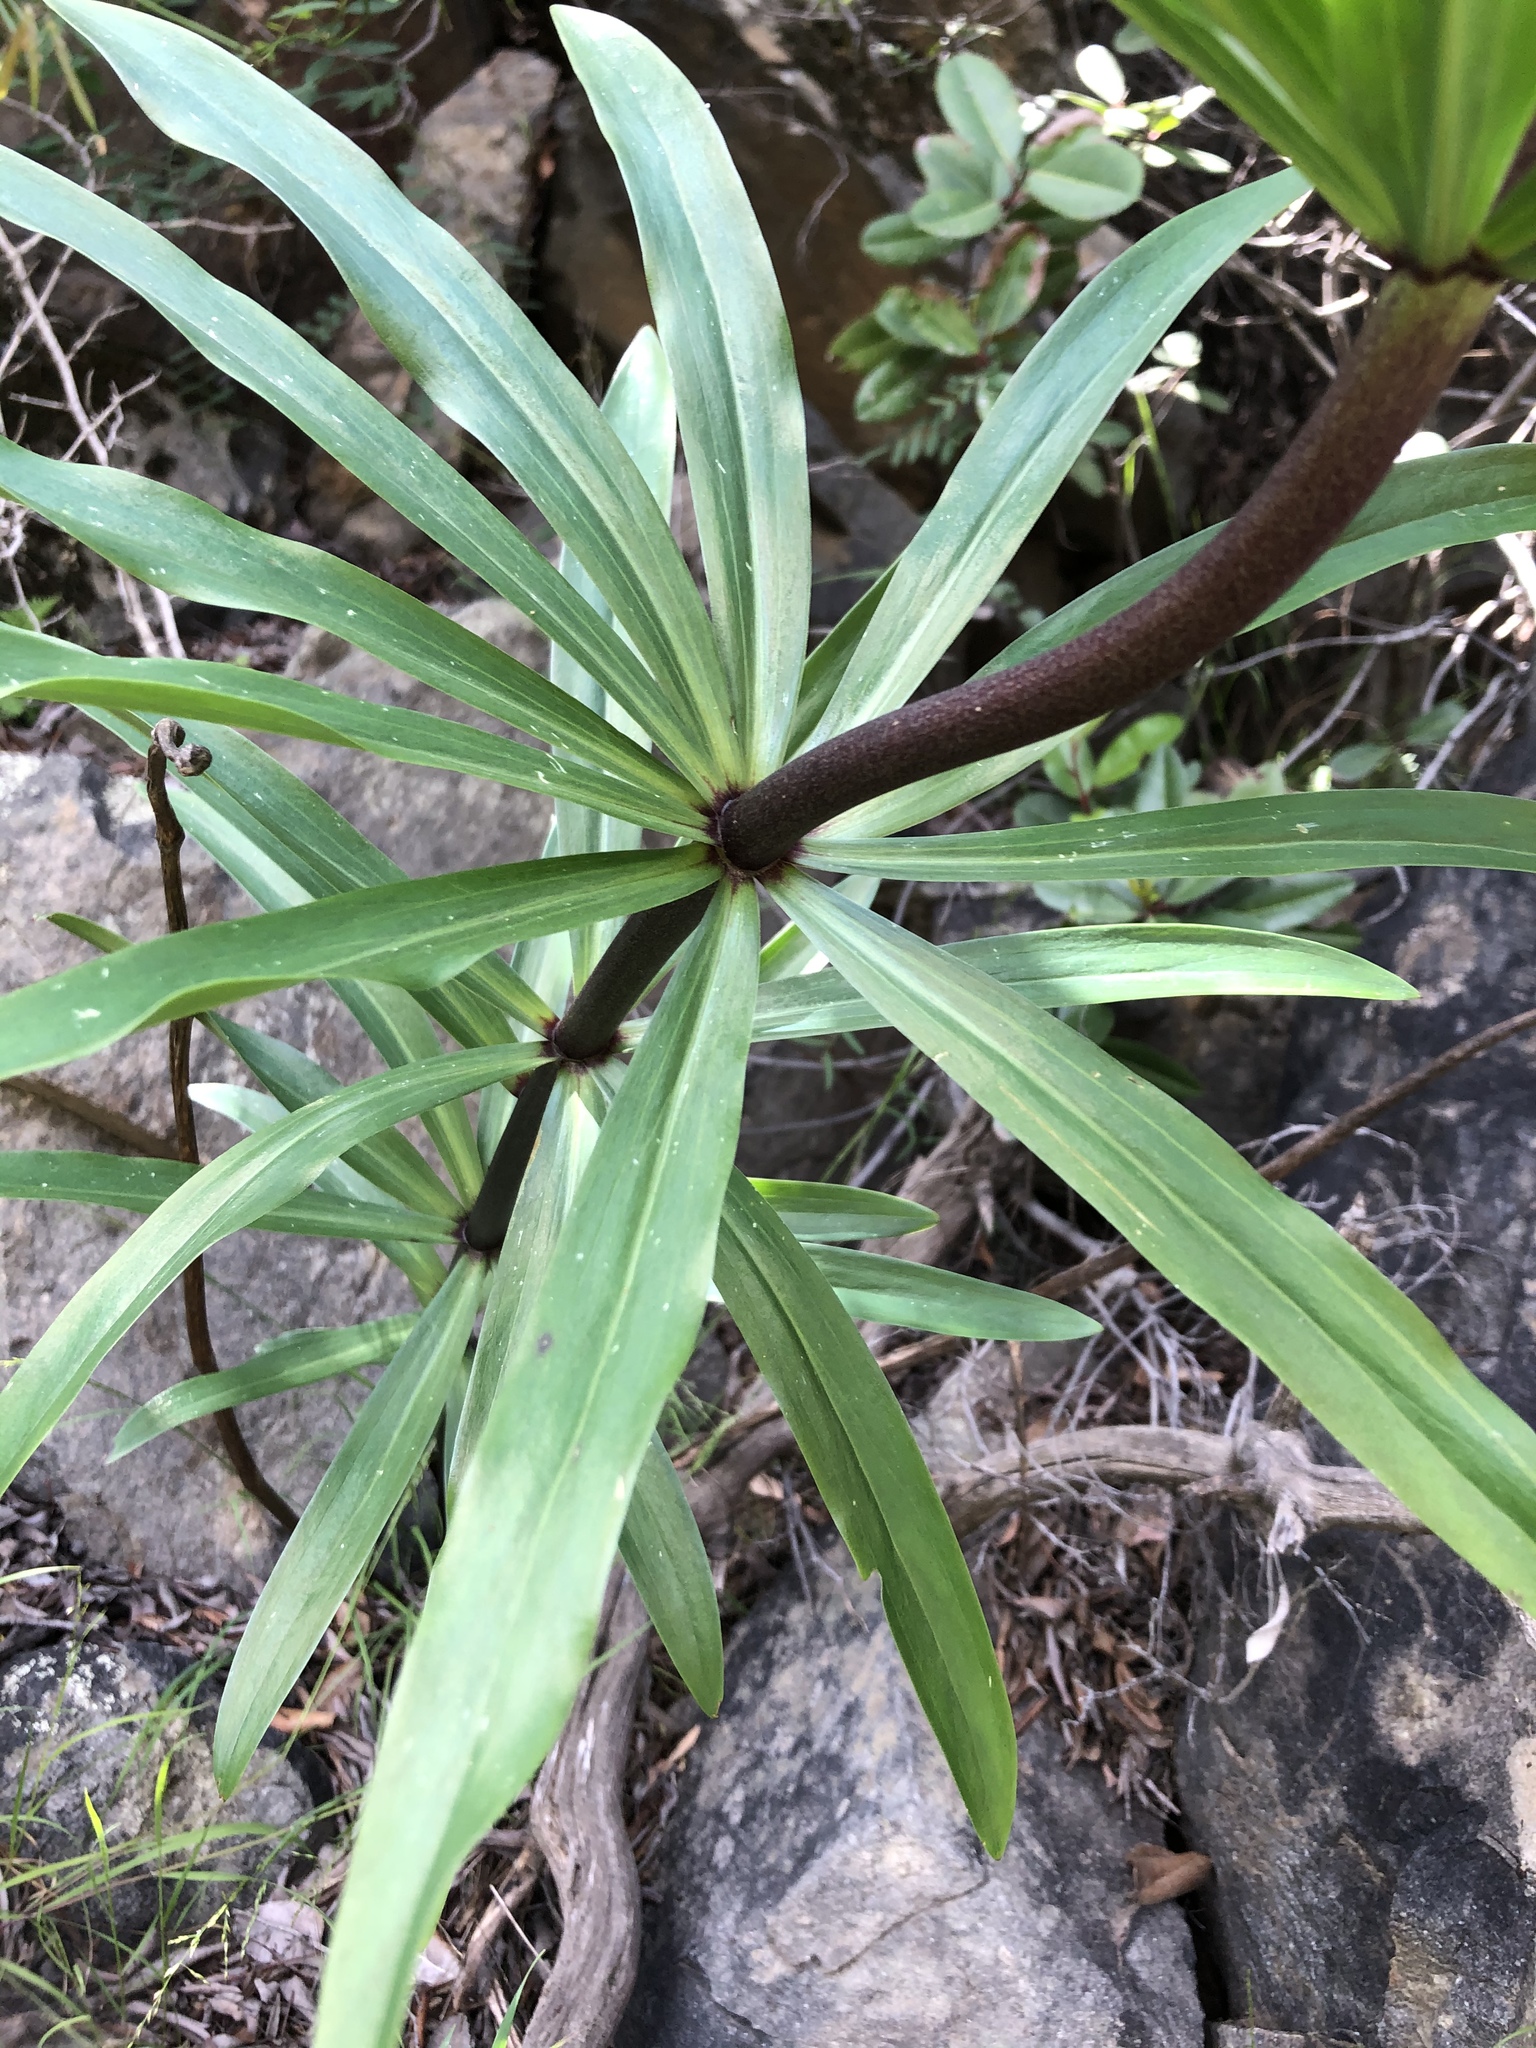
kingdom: Plantae
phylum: Tracheophyta
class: Liliopsida
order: Liliales
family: Liliaceae
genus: Lilium
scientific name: Lilium humboldtii
